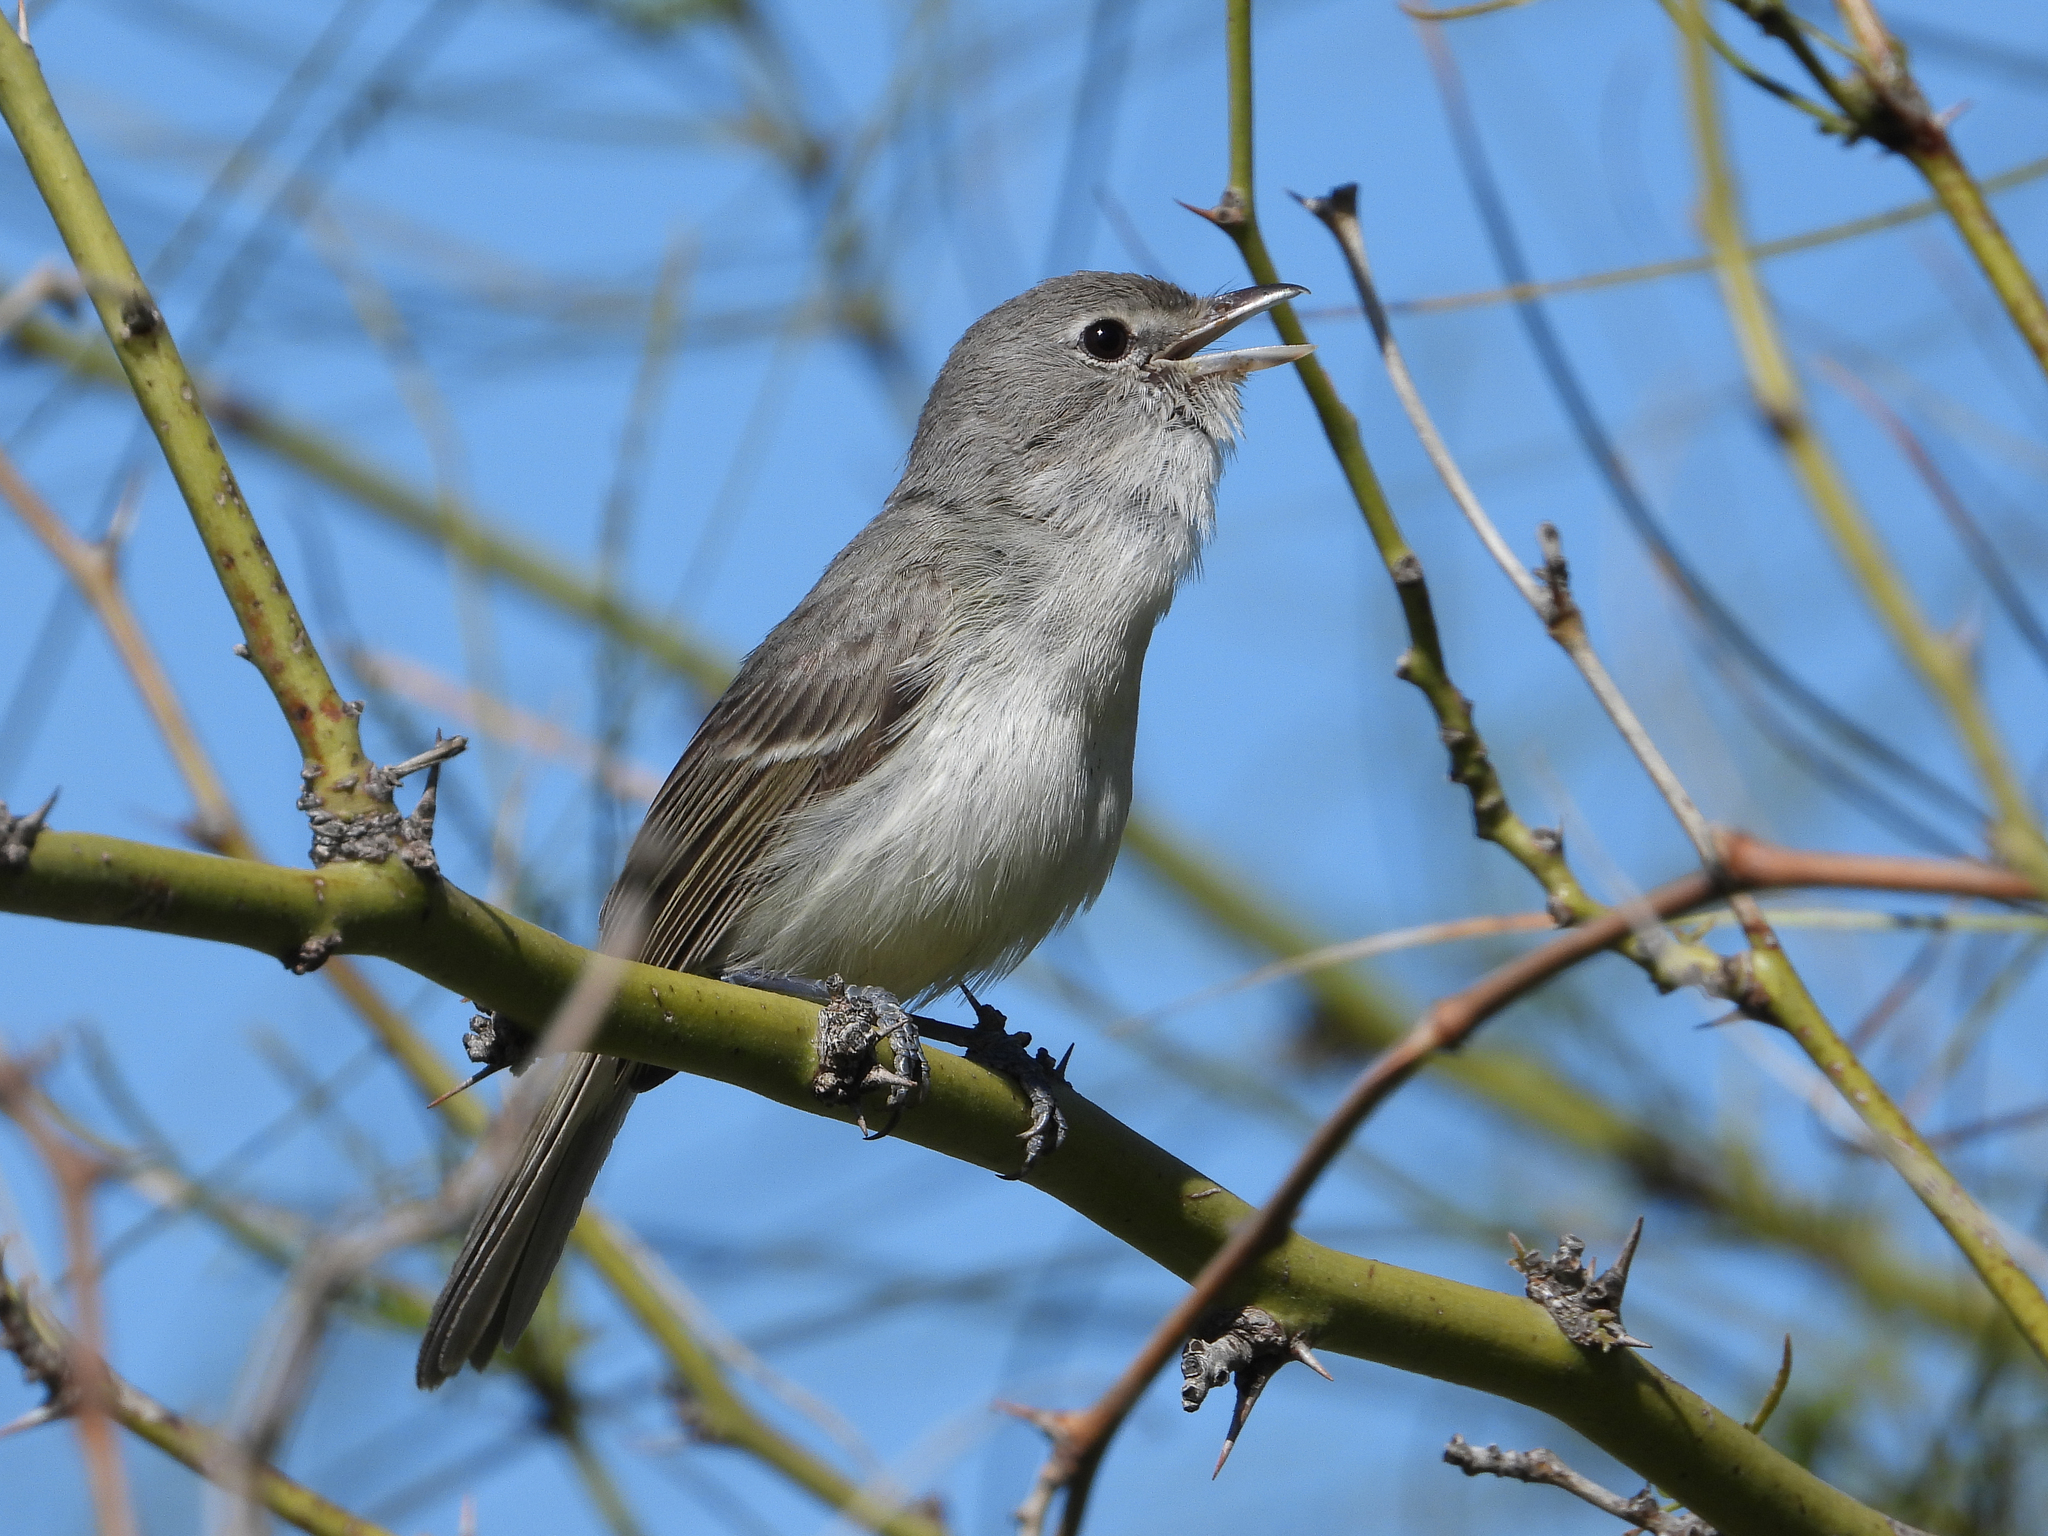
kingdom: Animalia
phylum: Chordata
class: Aves
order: Passeriformes
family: Vireonidae
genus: Vireo
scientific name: Vireo bellii
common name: Bell's vireo
